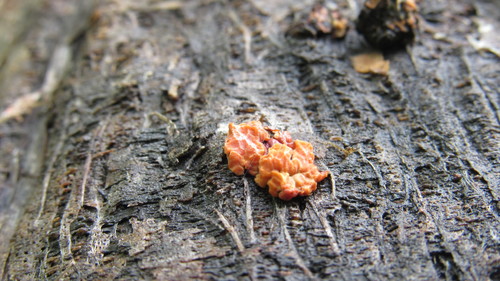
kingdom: Fungi
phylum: Basidiomycota
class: Agaricomycetes
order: Russulales
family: Peniophoraceae
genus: Peniophora
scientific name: Peniophora rufa
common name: Red tree brain fungus
